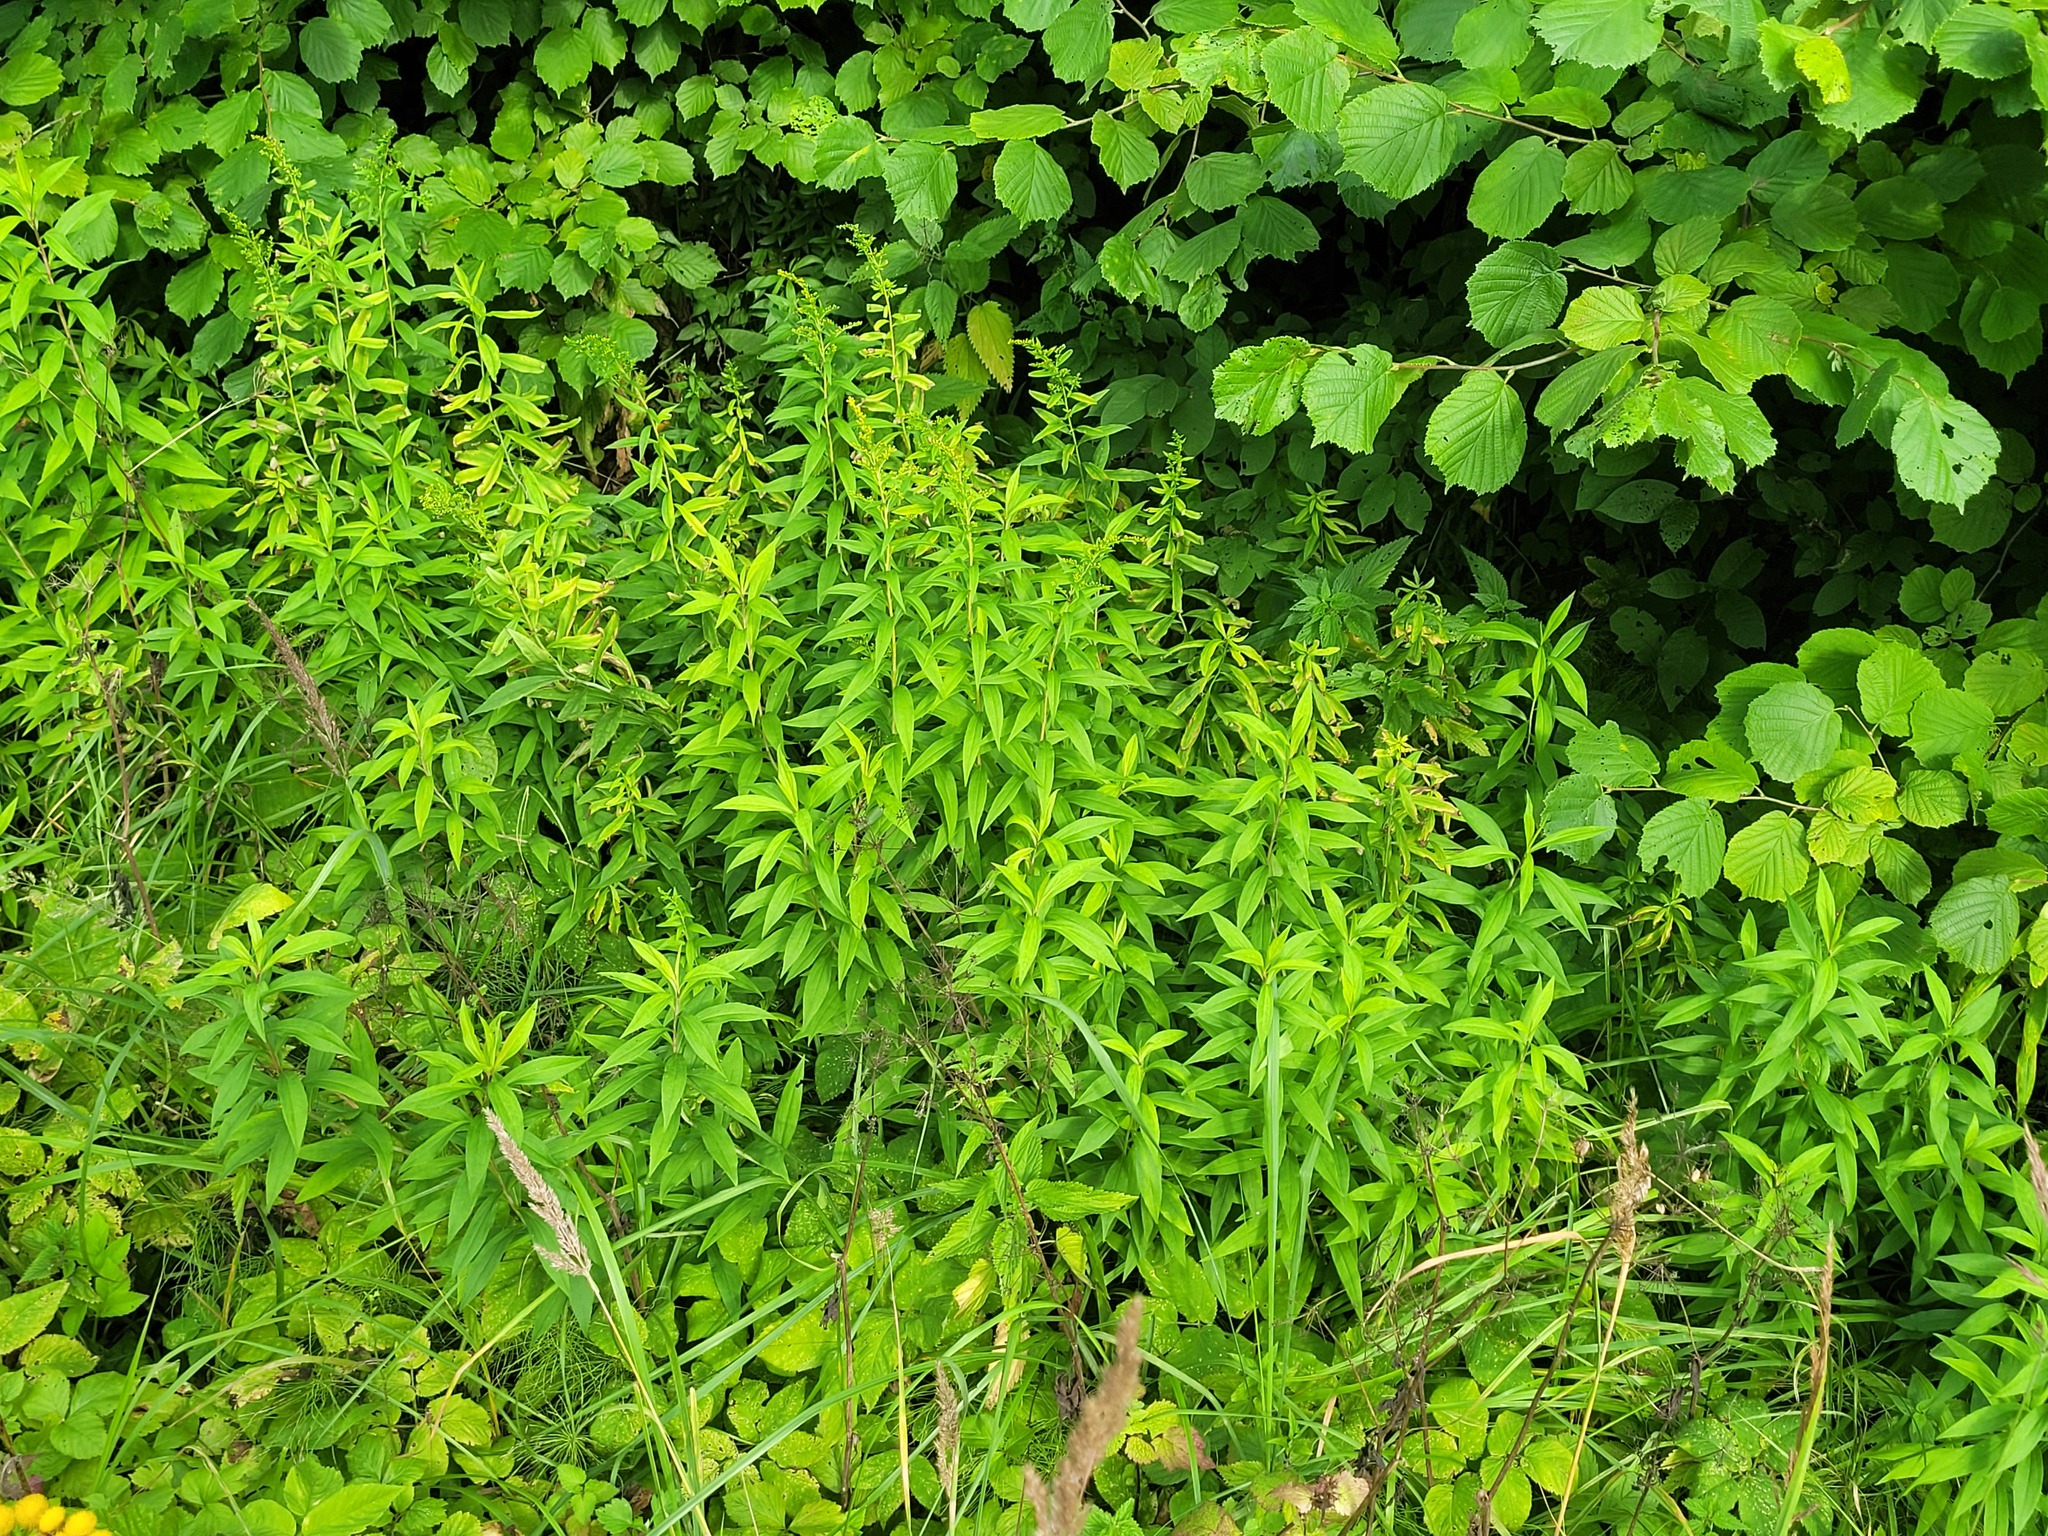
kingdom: Plantae
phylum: Tracheophyta
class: Magnoliopsida
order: Asterales
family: Asteraceae
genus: Solidago
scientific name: Solidago gigantea
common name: Giant goldenrod
